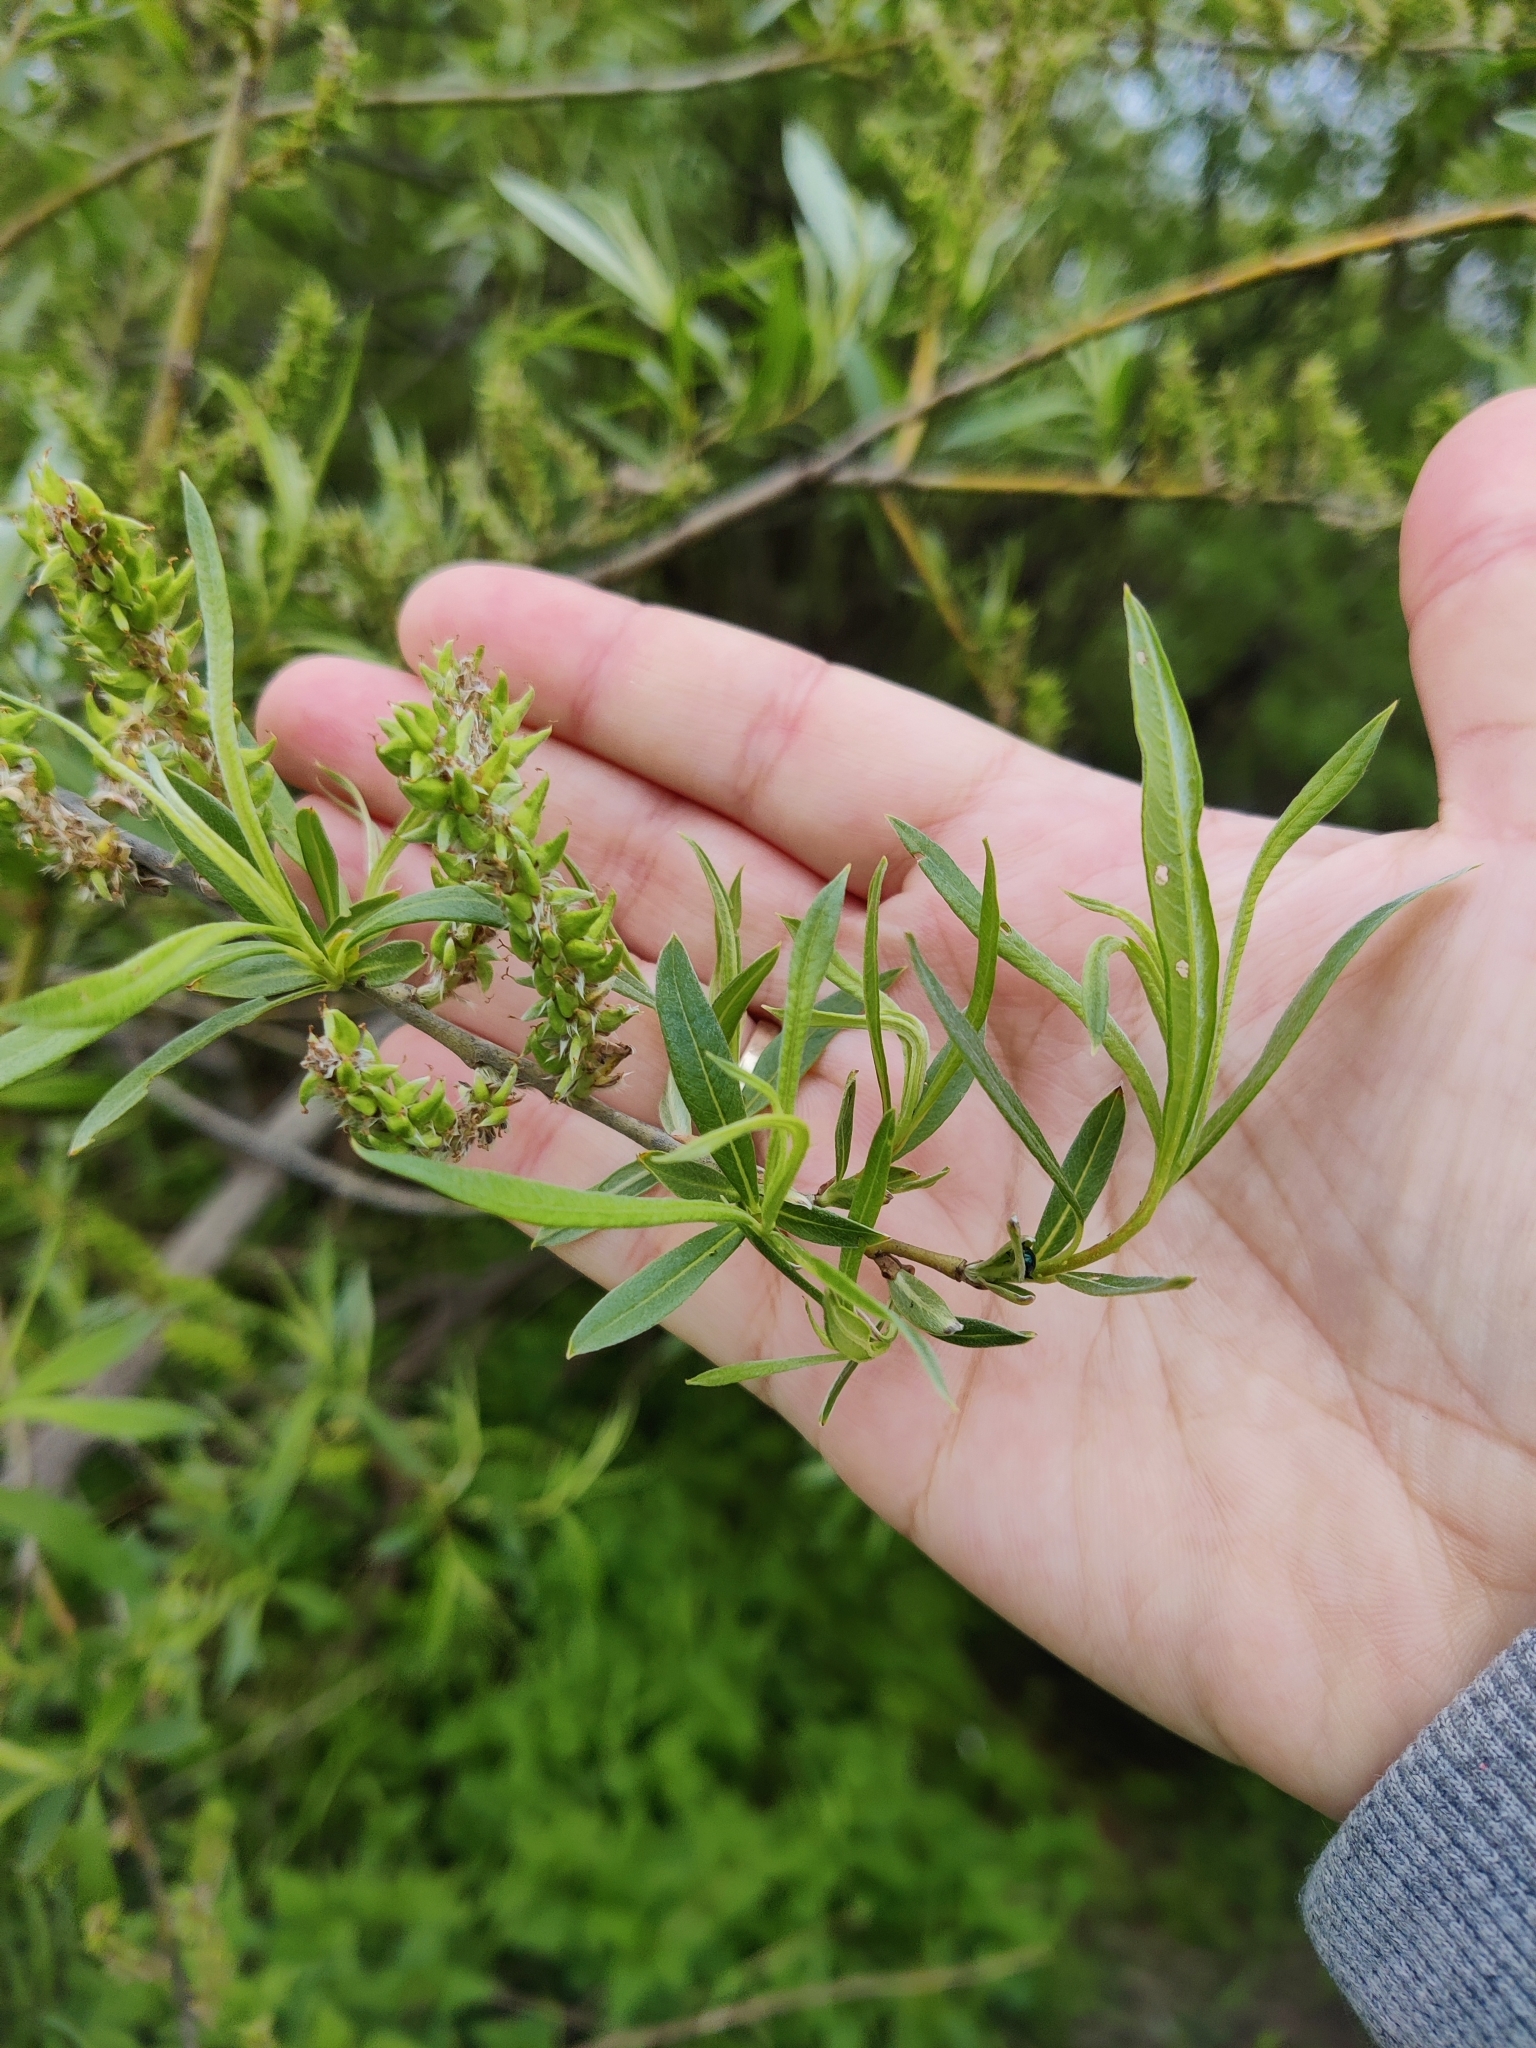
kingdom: Plantae
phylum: Tracheophyta
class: Magnoliopsida
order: Malpighiales
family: Salicaceae
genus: Salix
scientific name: Salix viminalis
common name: Osier
